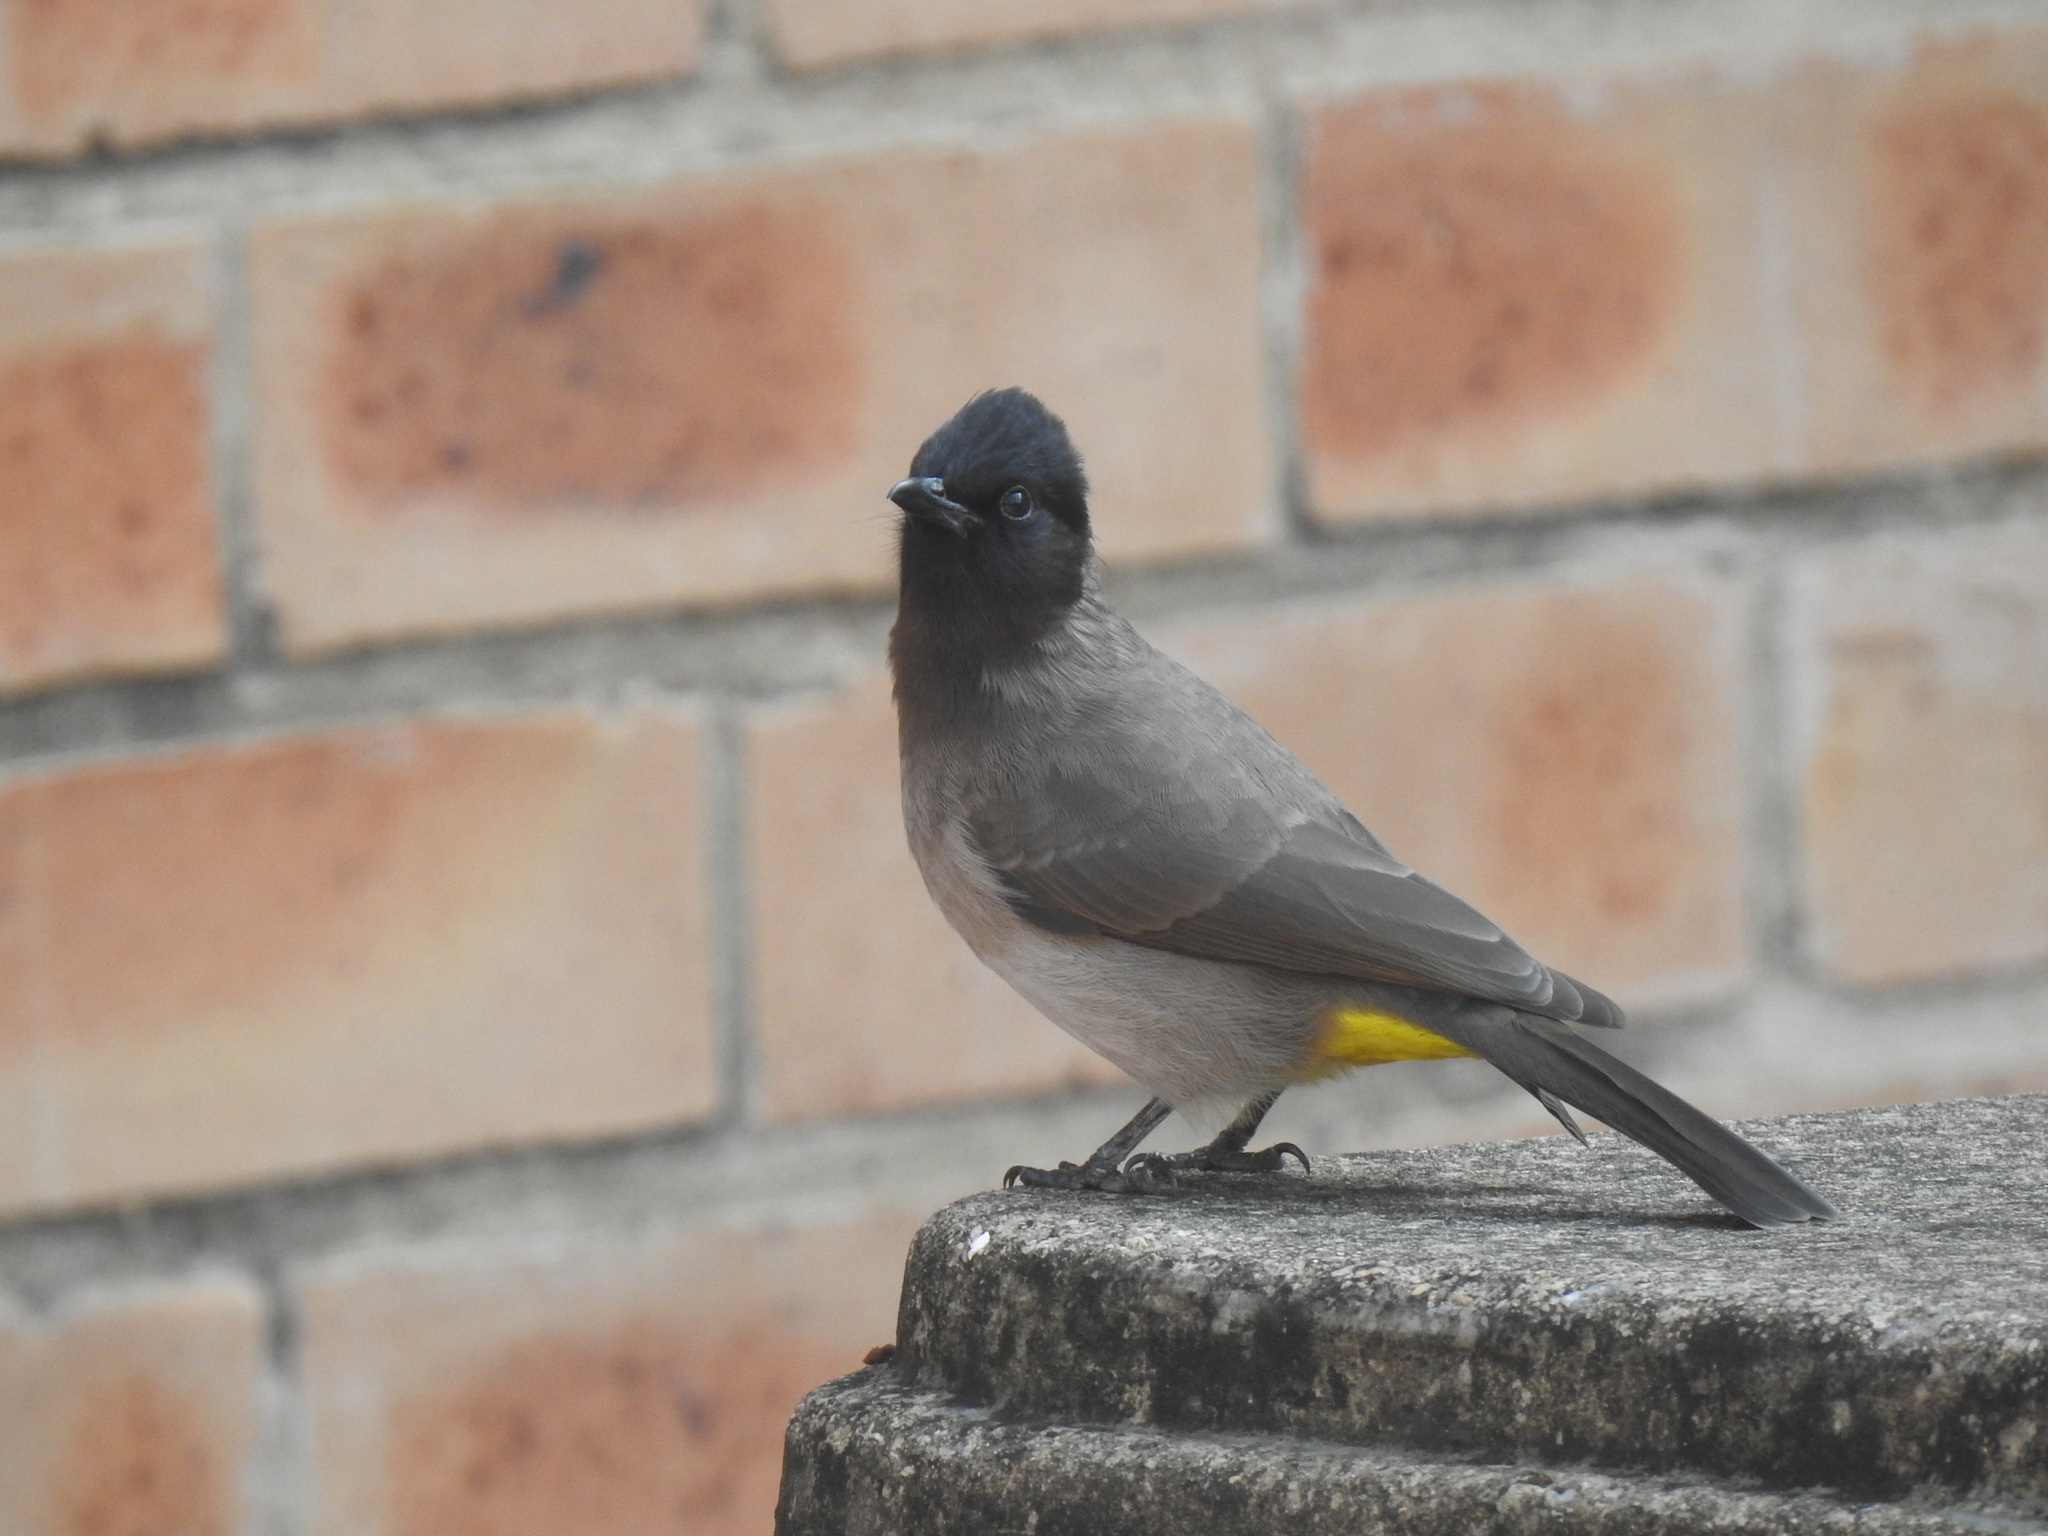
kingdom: Animalia
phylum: Chordata
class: Aves
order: Passeriformes
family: Pycnonotidae
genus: Pycnonotus
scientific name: Pycnonotus barbatus
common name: Common bulbul
